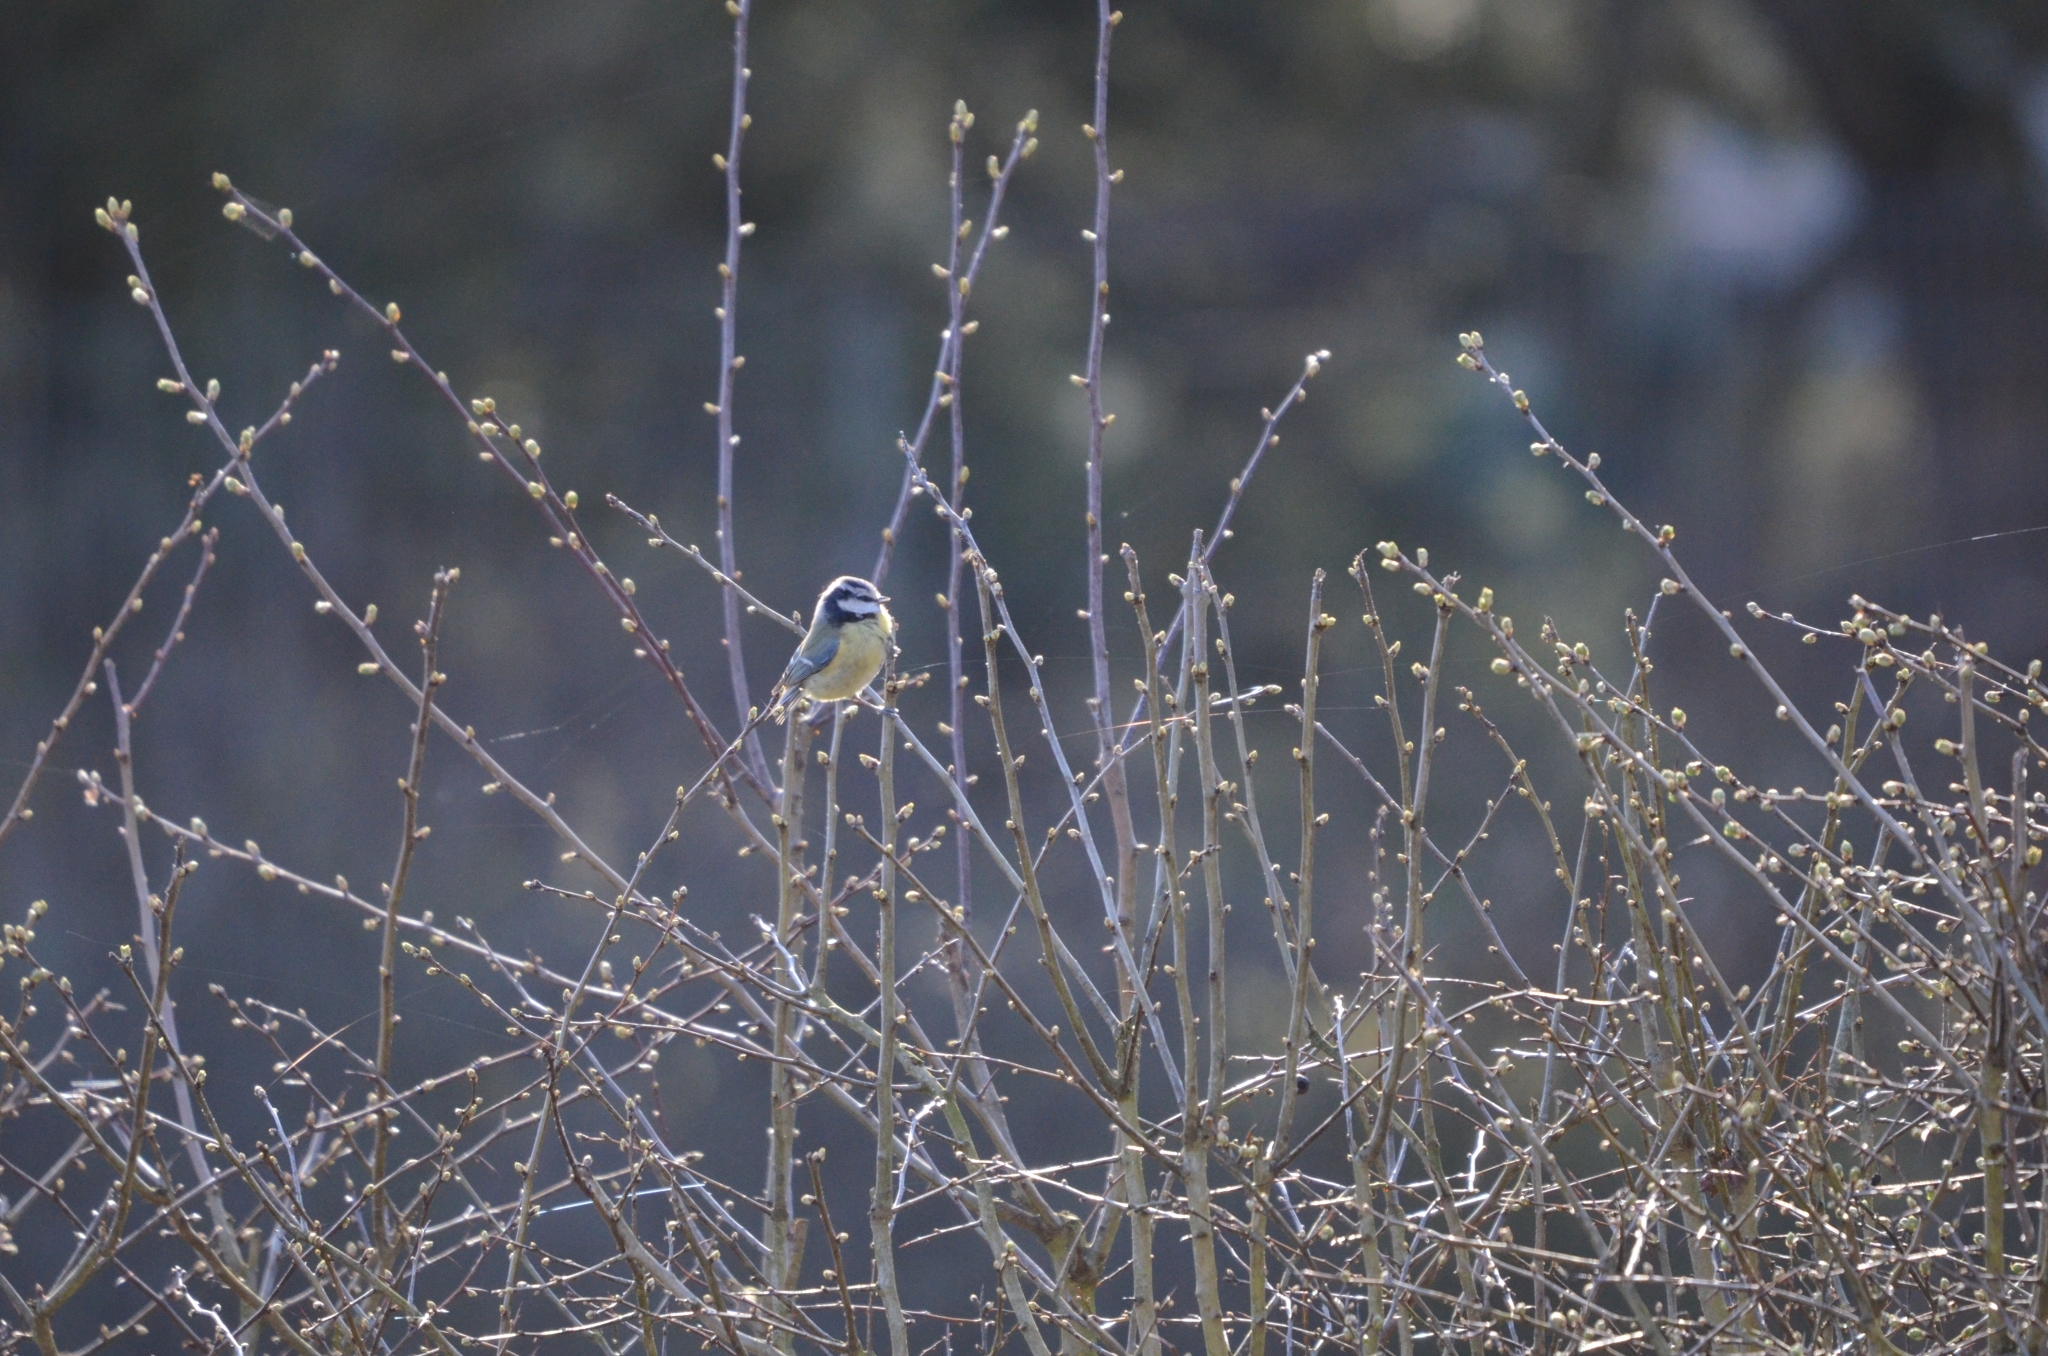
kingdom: Animalia
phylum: Chordata
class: Aves
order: Passeriformes
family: Paridae
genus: Cyanistes
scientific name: Cyanistes caeruleus
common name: Eurasian blue tit
